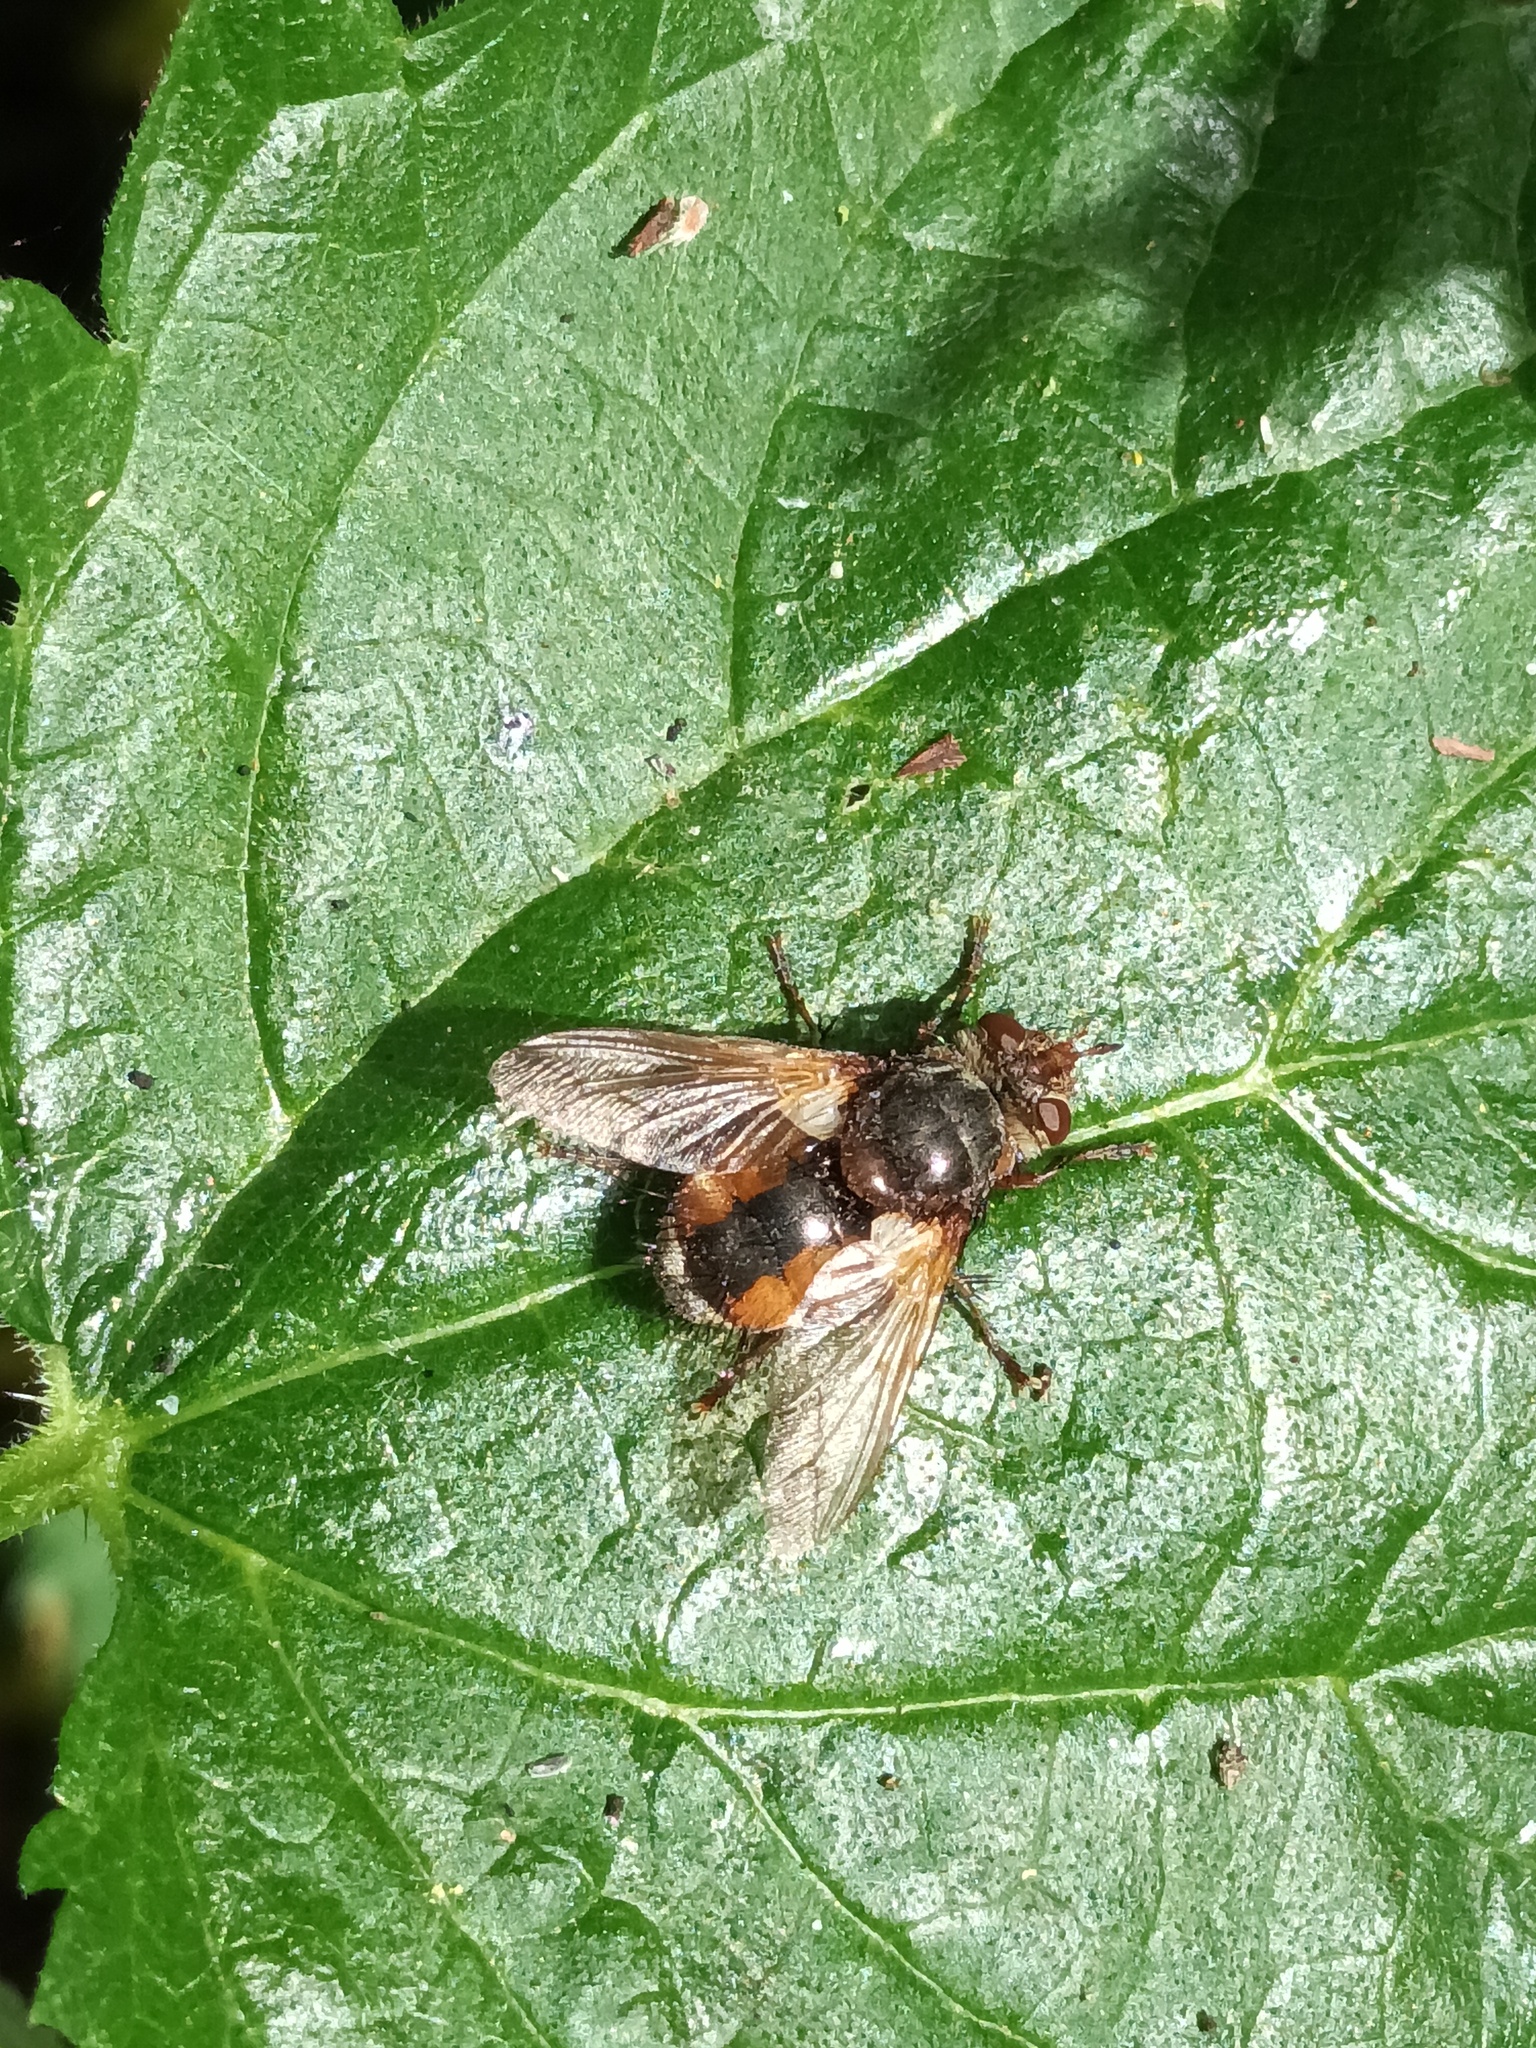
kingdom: Animalia
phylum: Arthropoda
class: Insecta
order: Diptera
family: Tachinidae
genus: Tachina
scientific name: Tachina fera
